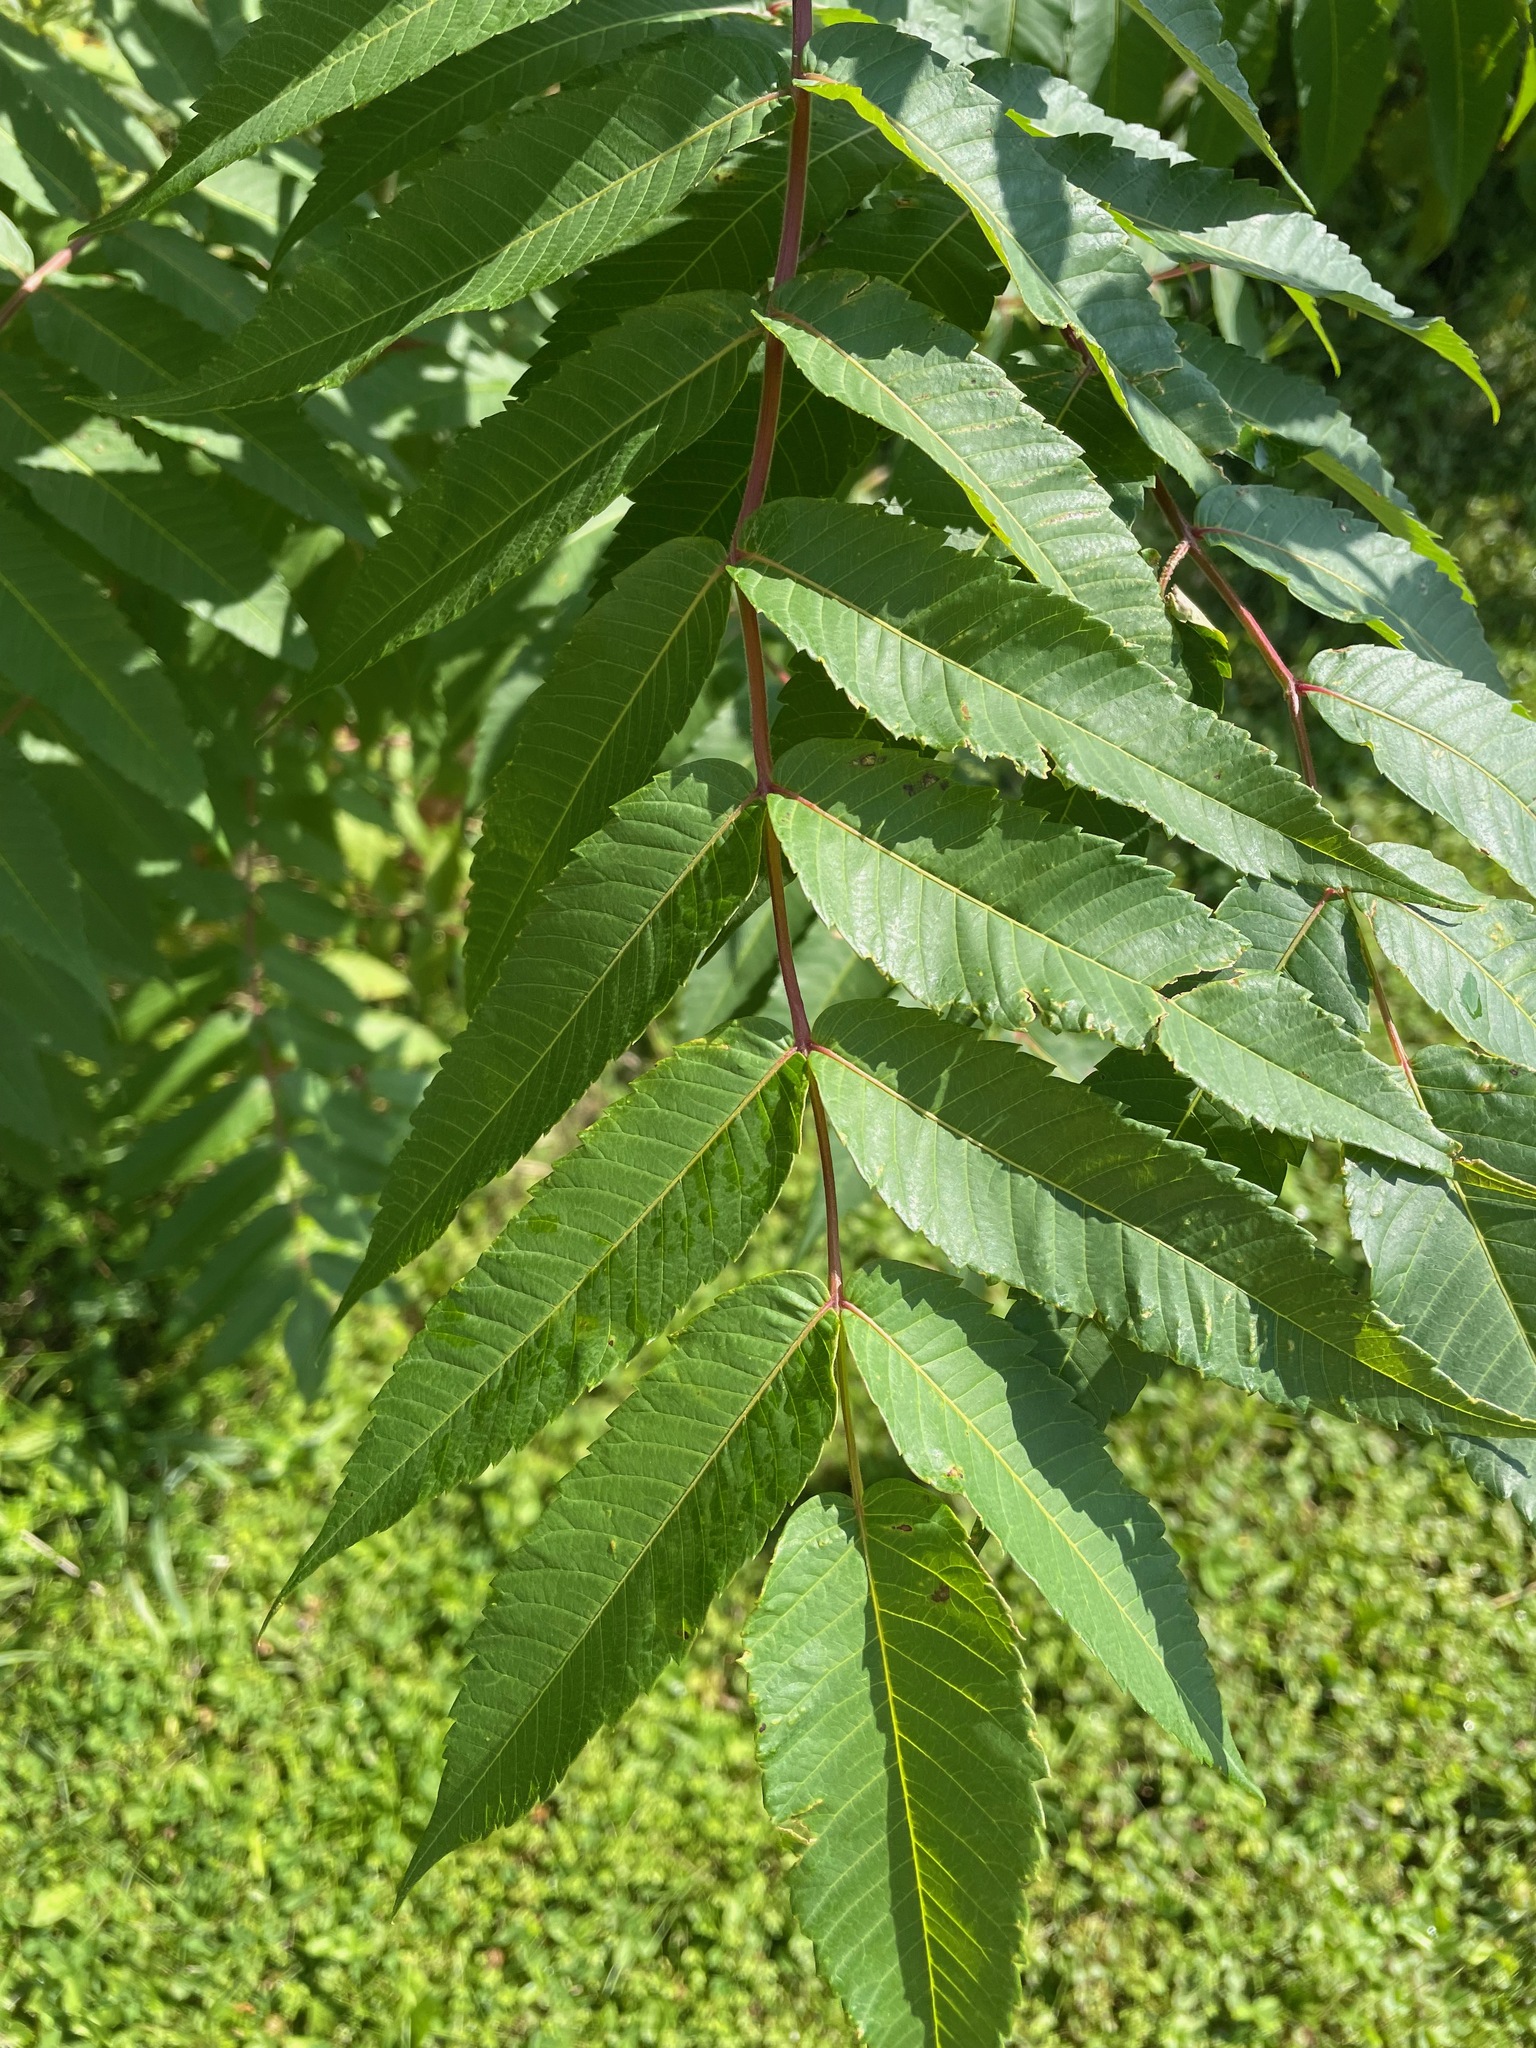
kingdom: Plantae
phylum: Tracheophyta
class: Magnoliopsida
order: Sapindales
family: Anacardiaceae
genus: Rhus
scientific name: Rhus typhina
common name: Staghorn sumac
